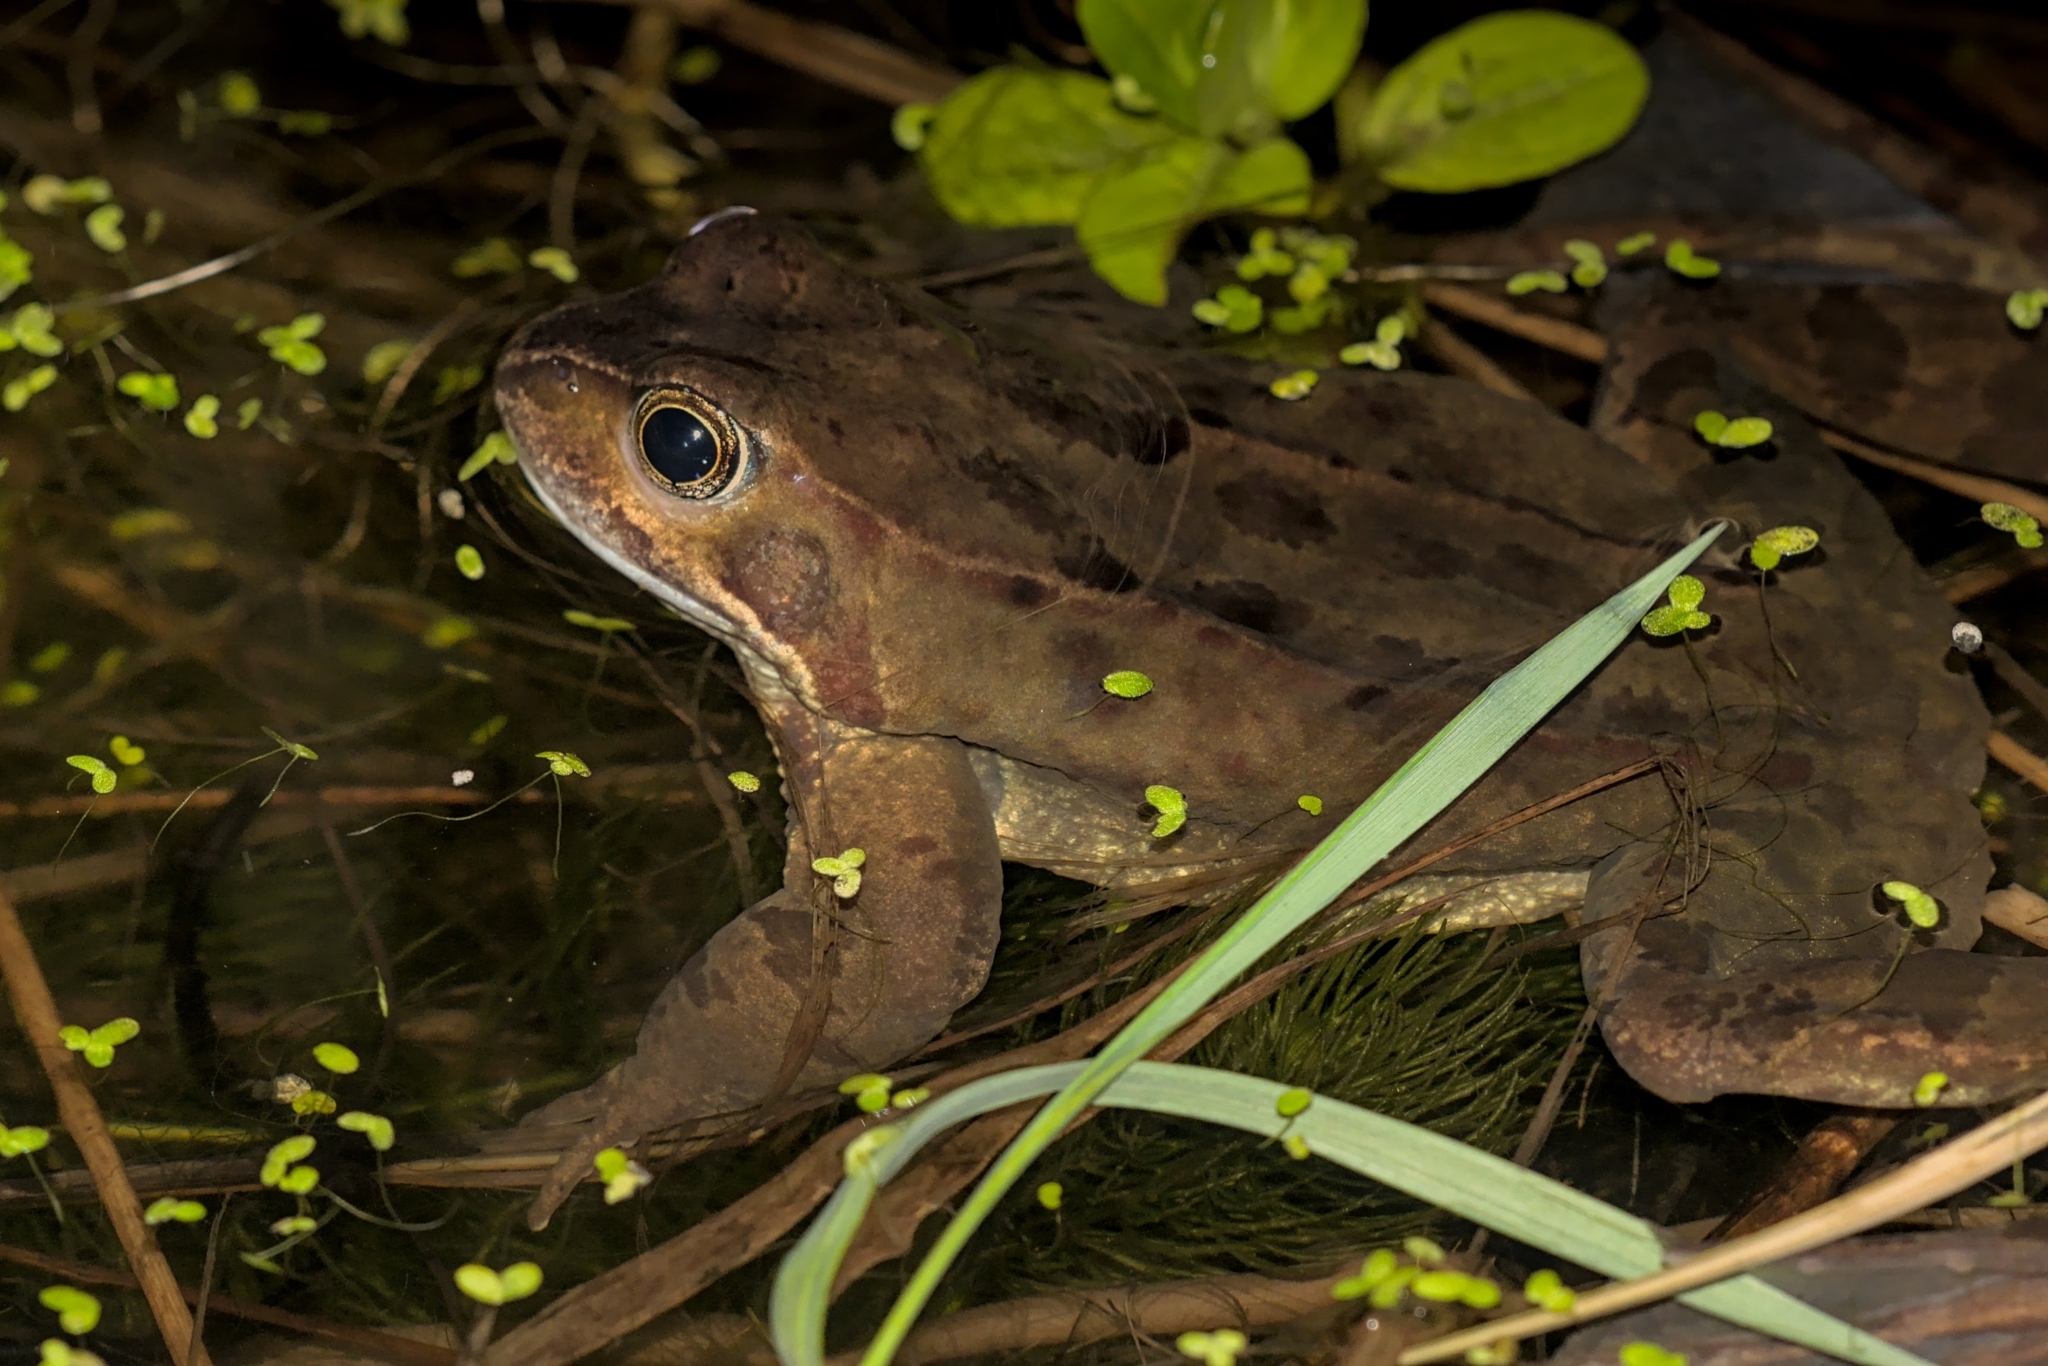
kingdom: Animalia
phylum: Chordata
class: Amphibia
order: Anura
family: Ranidae
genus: Rana
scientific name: Rana temporaria
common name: Common frog
